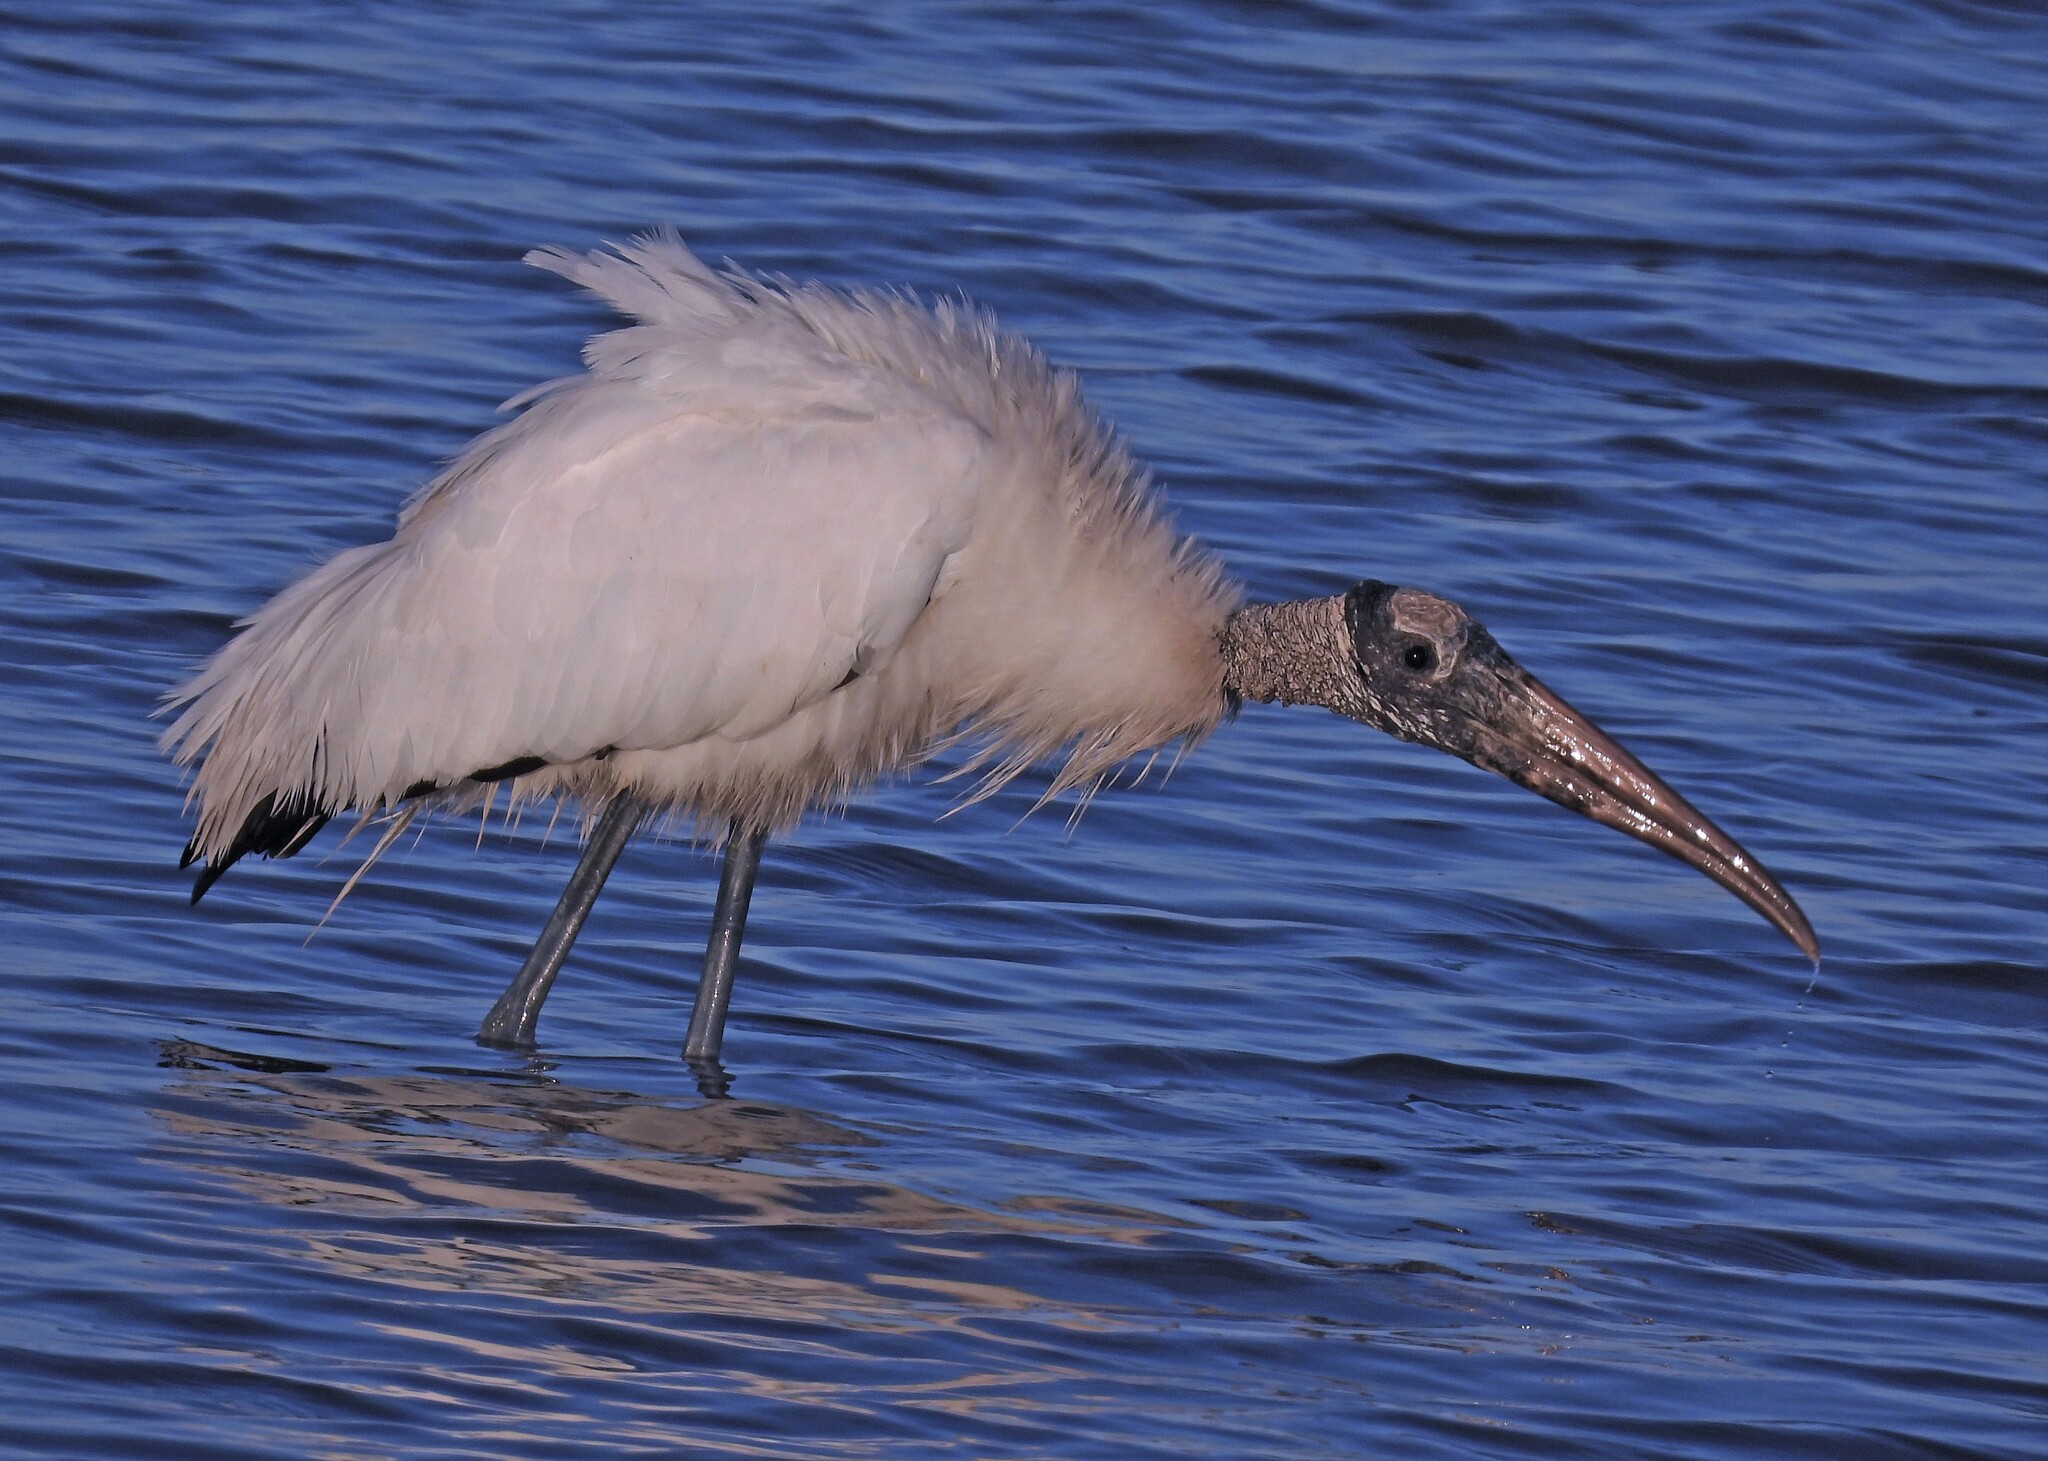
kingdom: Animalia
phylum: Chordata
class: Aves
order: Ciconiiformes
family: Ciconiidae
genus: Mycteria
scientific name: Mycteria americana
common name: Wood stork
